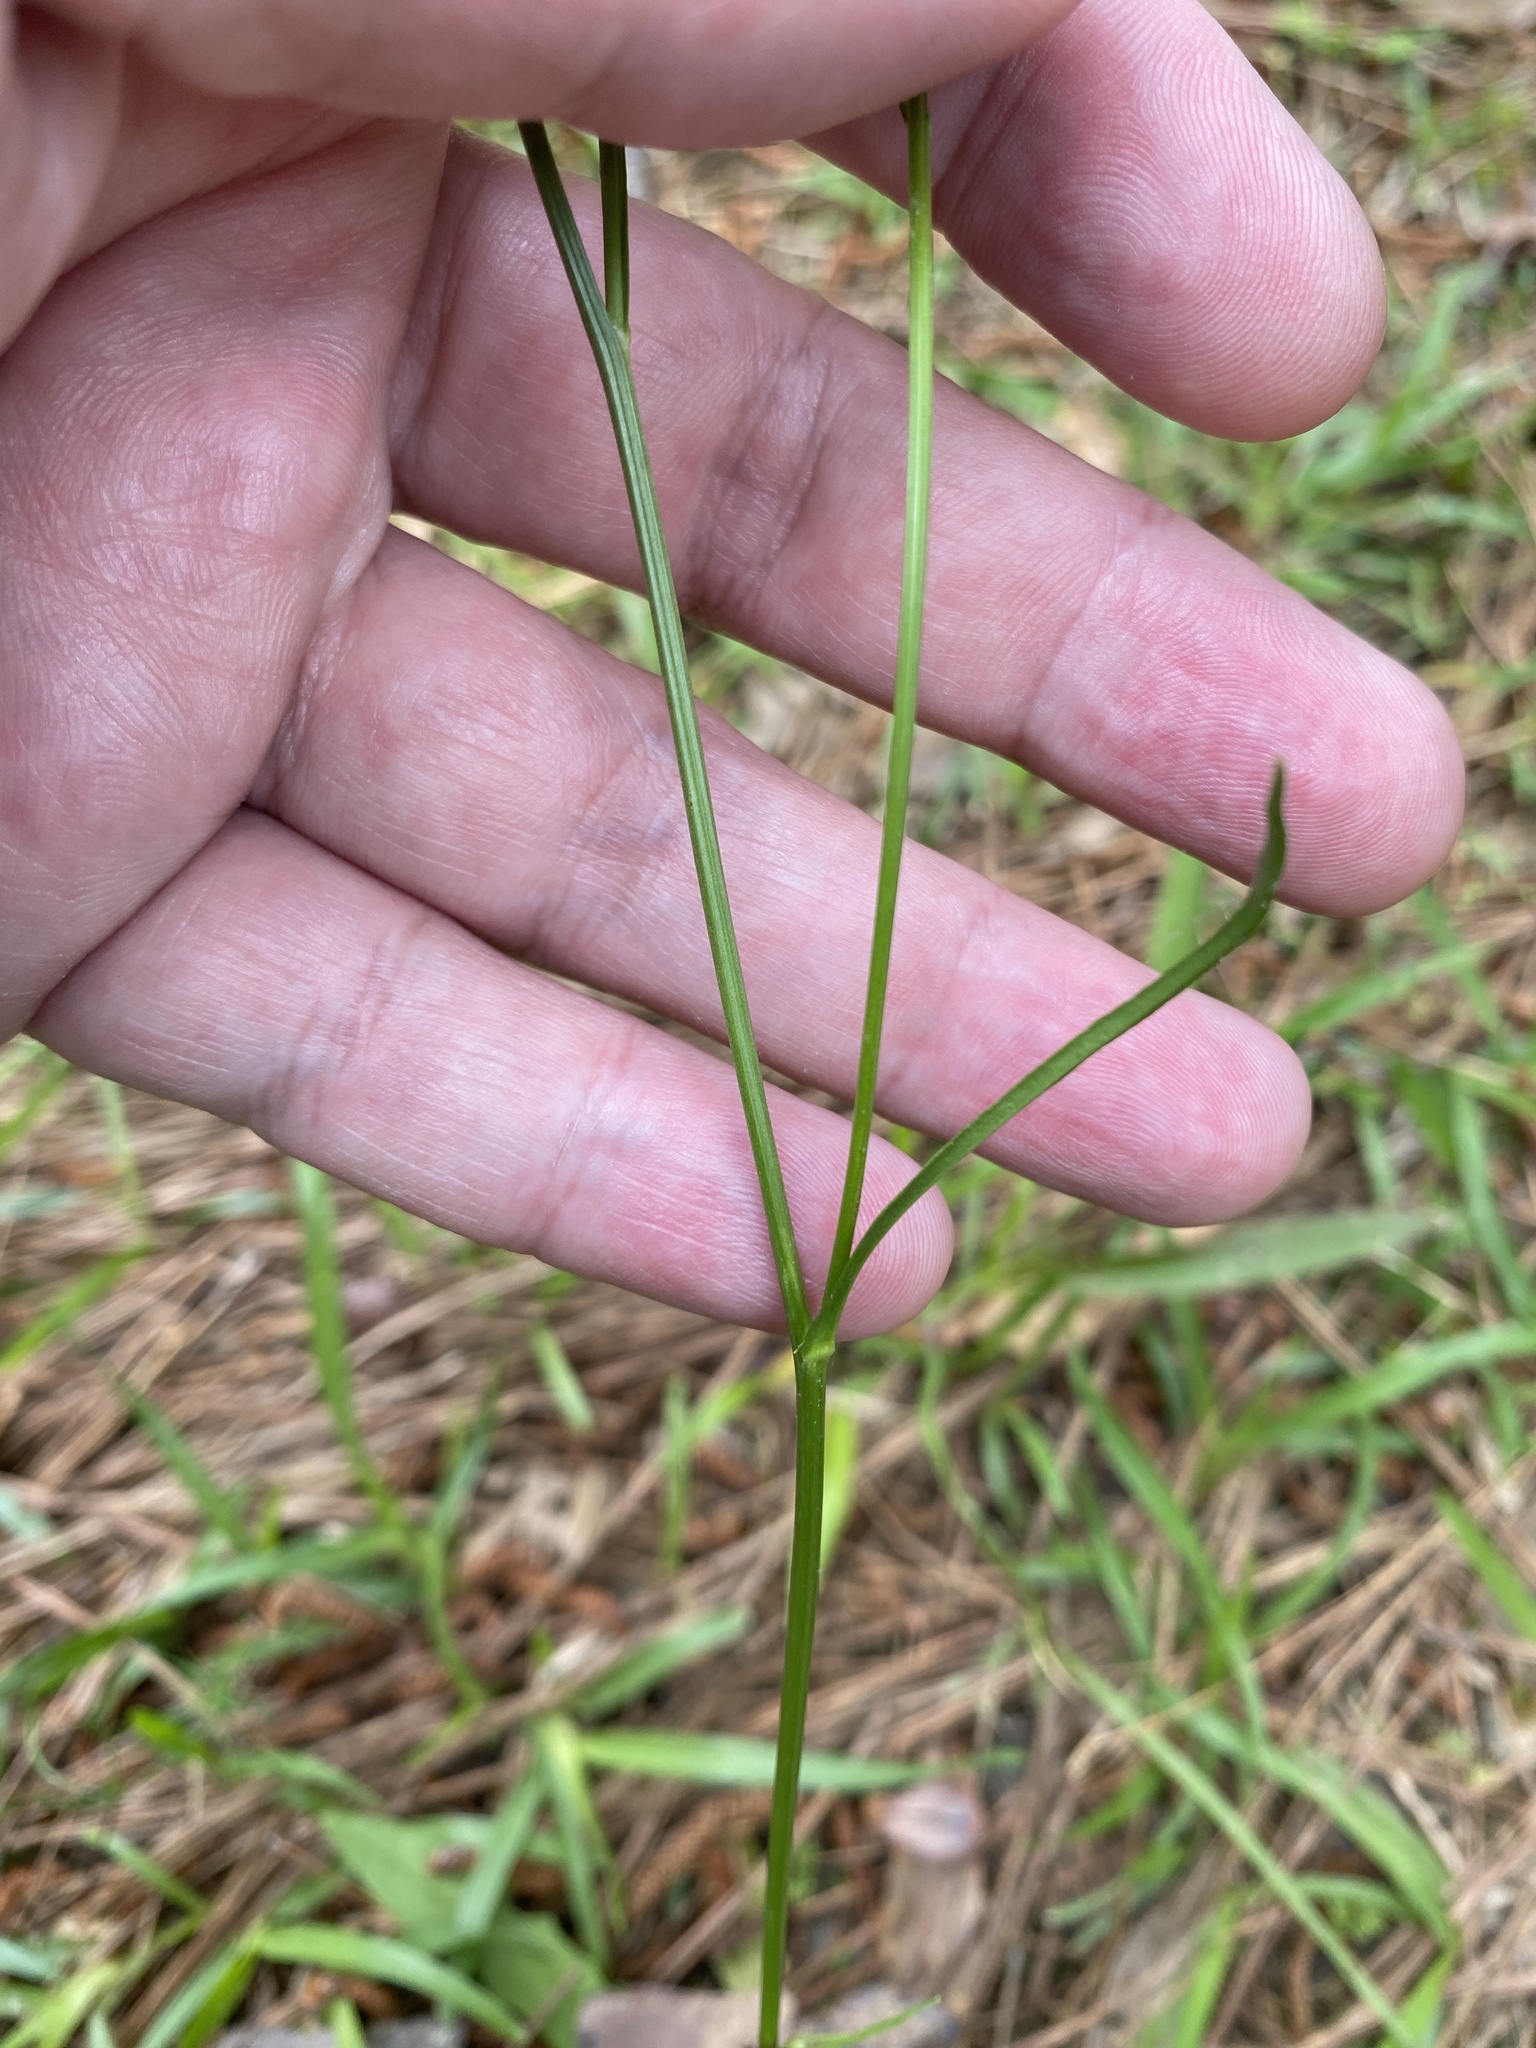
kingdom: Plantae
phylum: Tracheophyta
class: Magnoliopsida
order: Asterales
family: Asteraceae
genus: Hypochaeris
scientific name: Hypochaeris albiflora
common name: White flatweed
